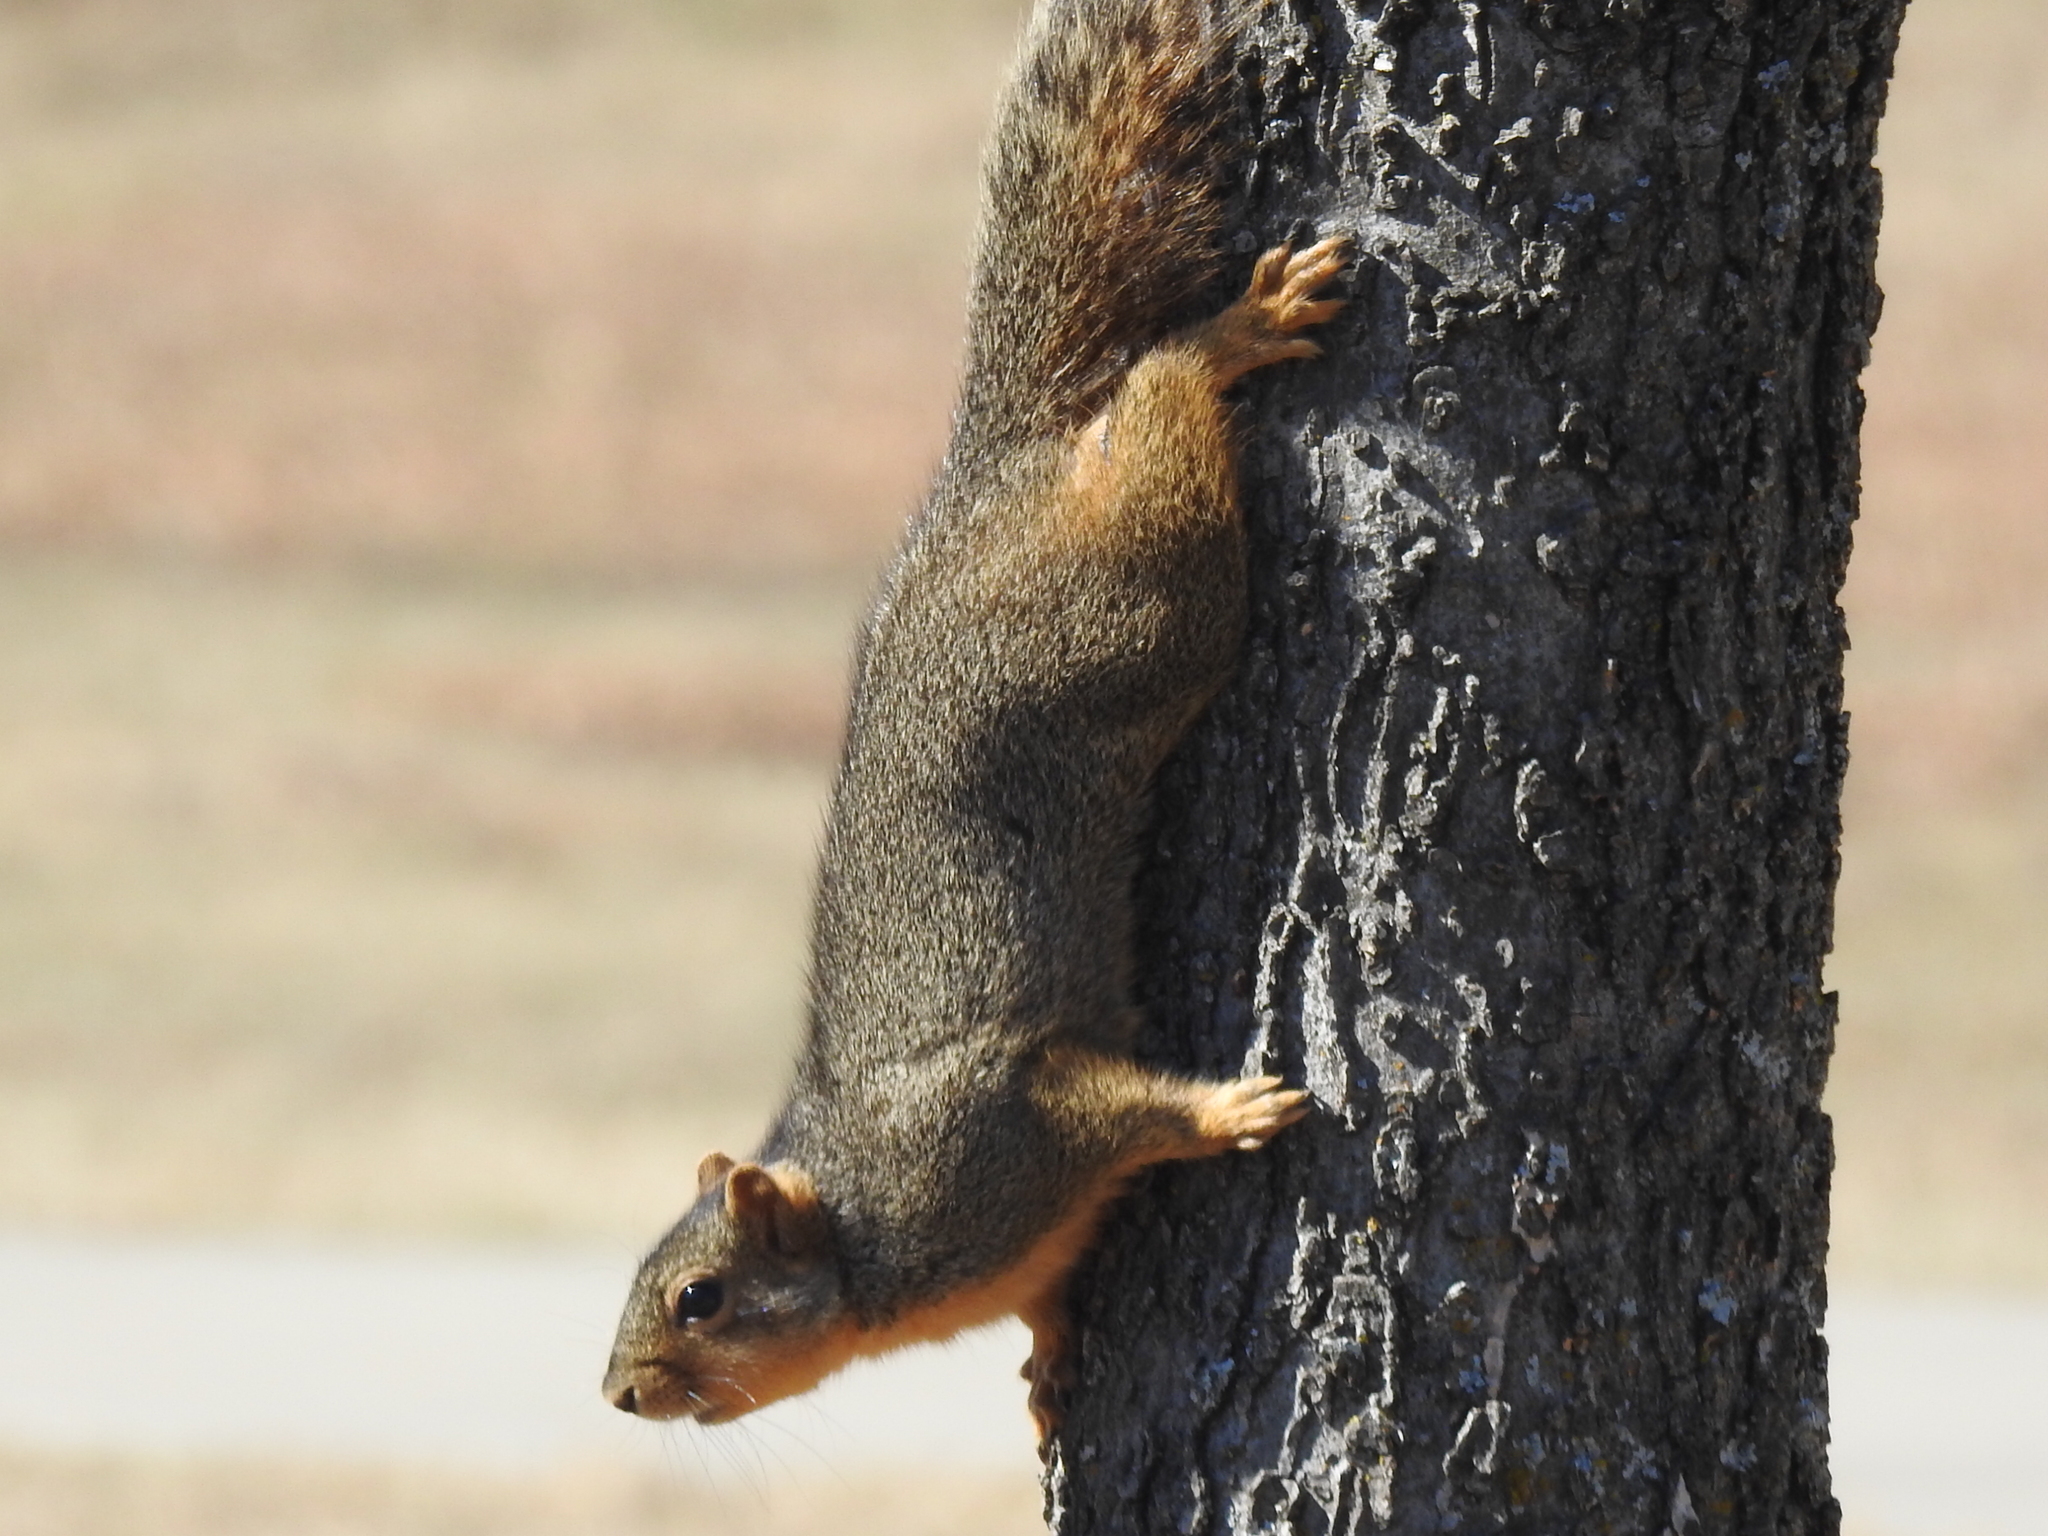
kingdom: Animalia
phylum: Chordata
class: Mammalia
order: Rodentia
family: Sciuridae
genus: Sciurus
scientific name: Sciurus niger
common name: Fox squirrel
